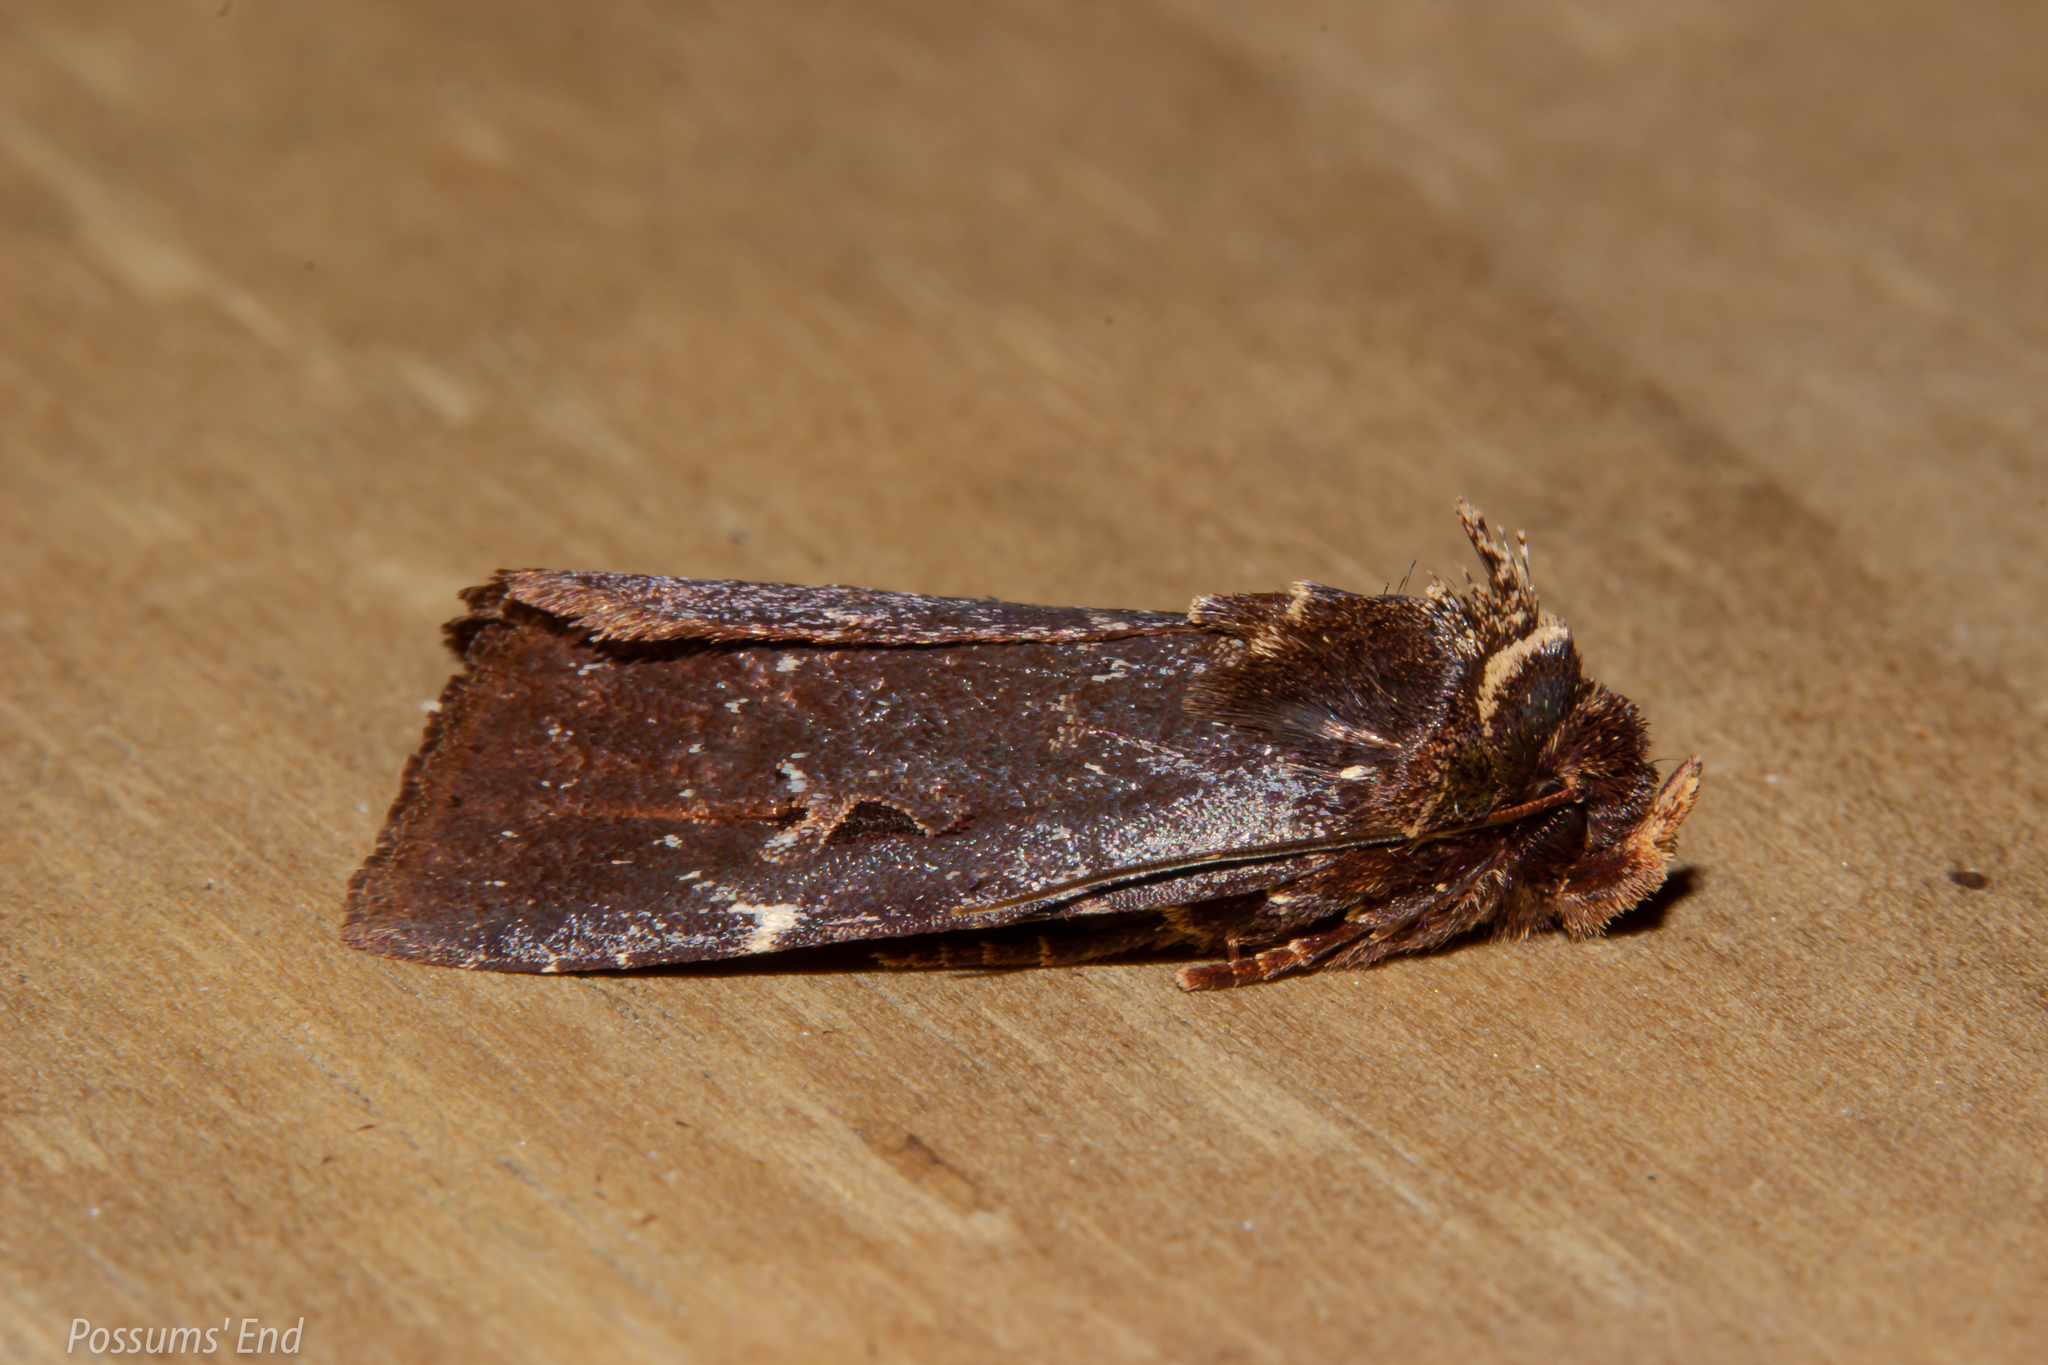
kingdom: Animalia
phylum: Arthropoda
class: Insecta
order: Lepidoptera
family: Noctuidae
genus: Austramathes
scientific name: Austramathes purpurea
